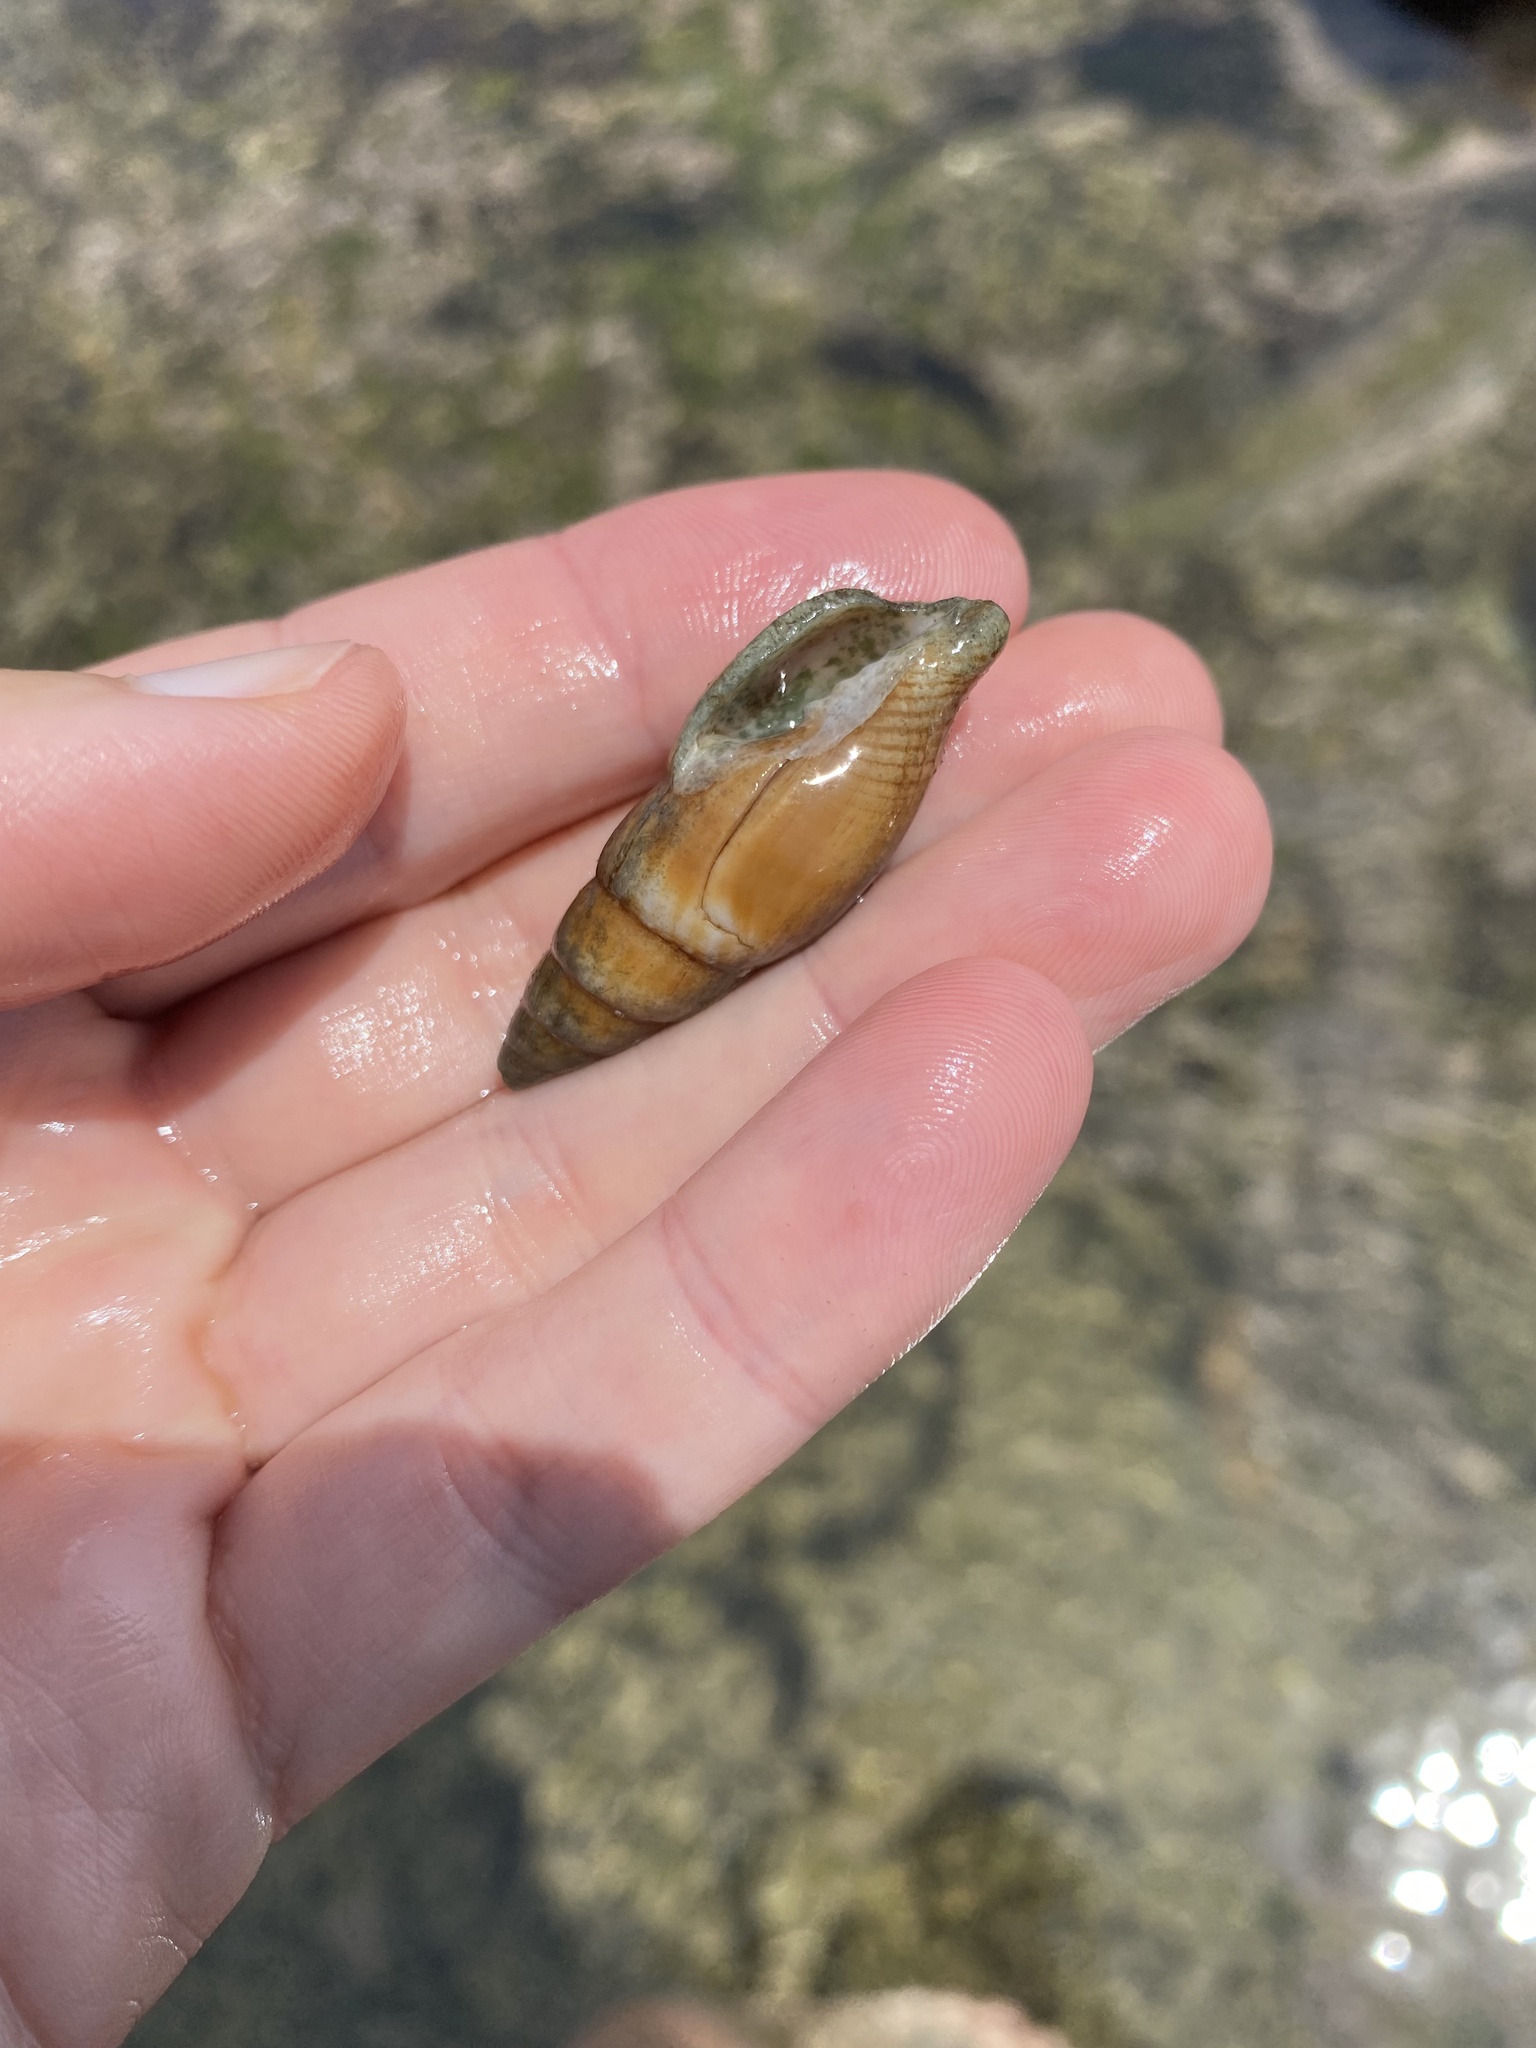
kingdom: Animalia
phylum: Mollusca
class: Gastropoda
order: Neogastropoda
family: Nassariidae
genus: Bullia
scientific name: Bullia mozambicensis
